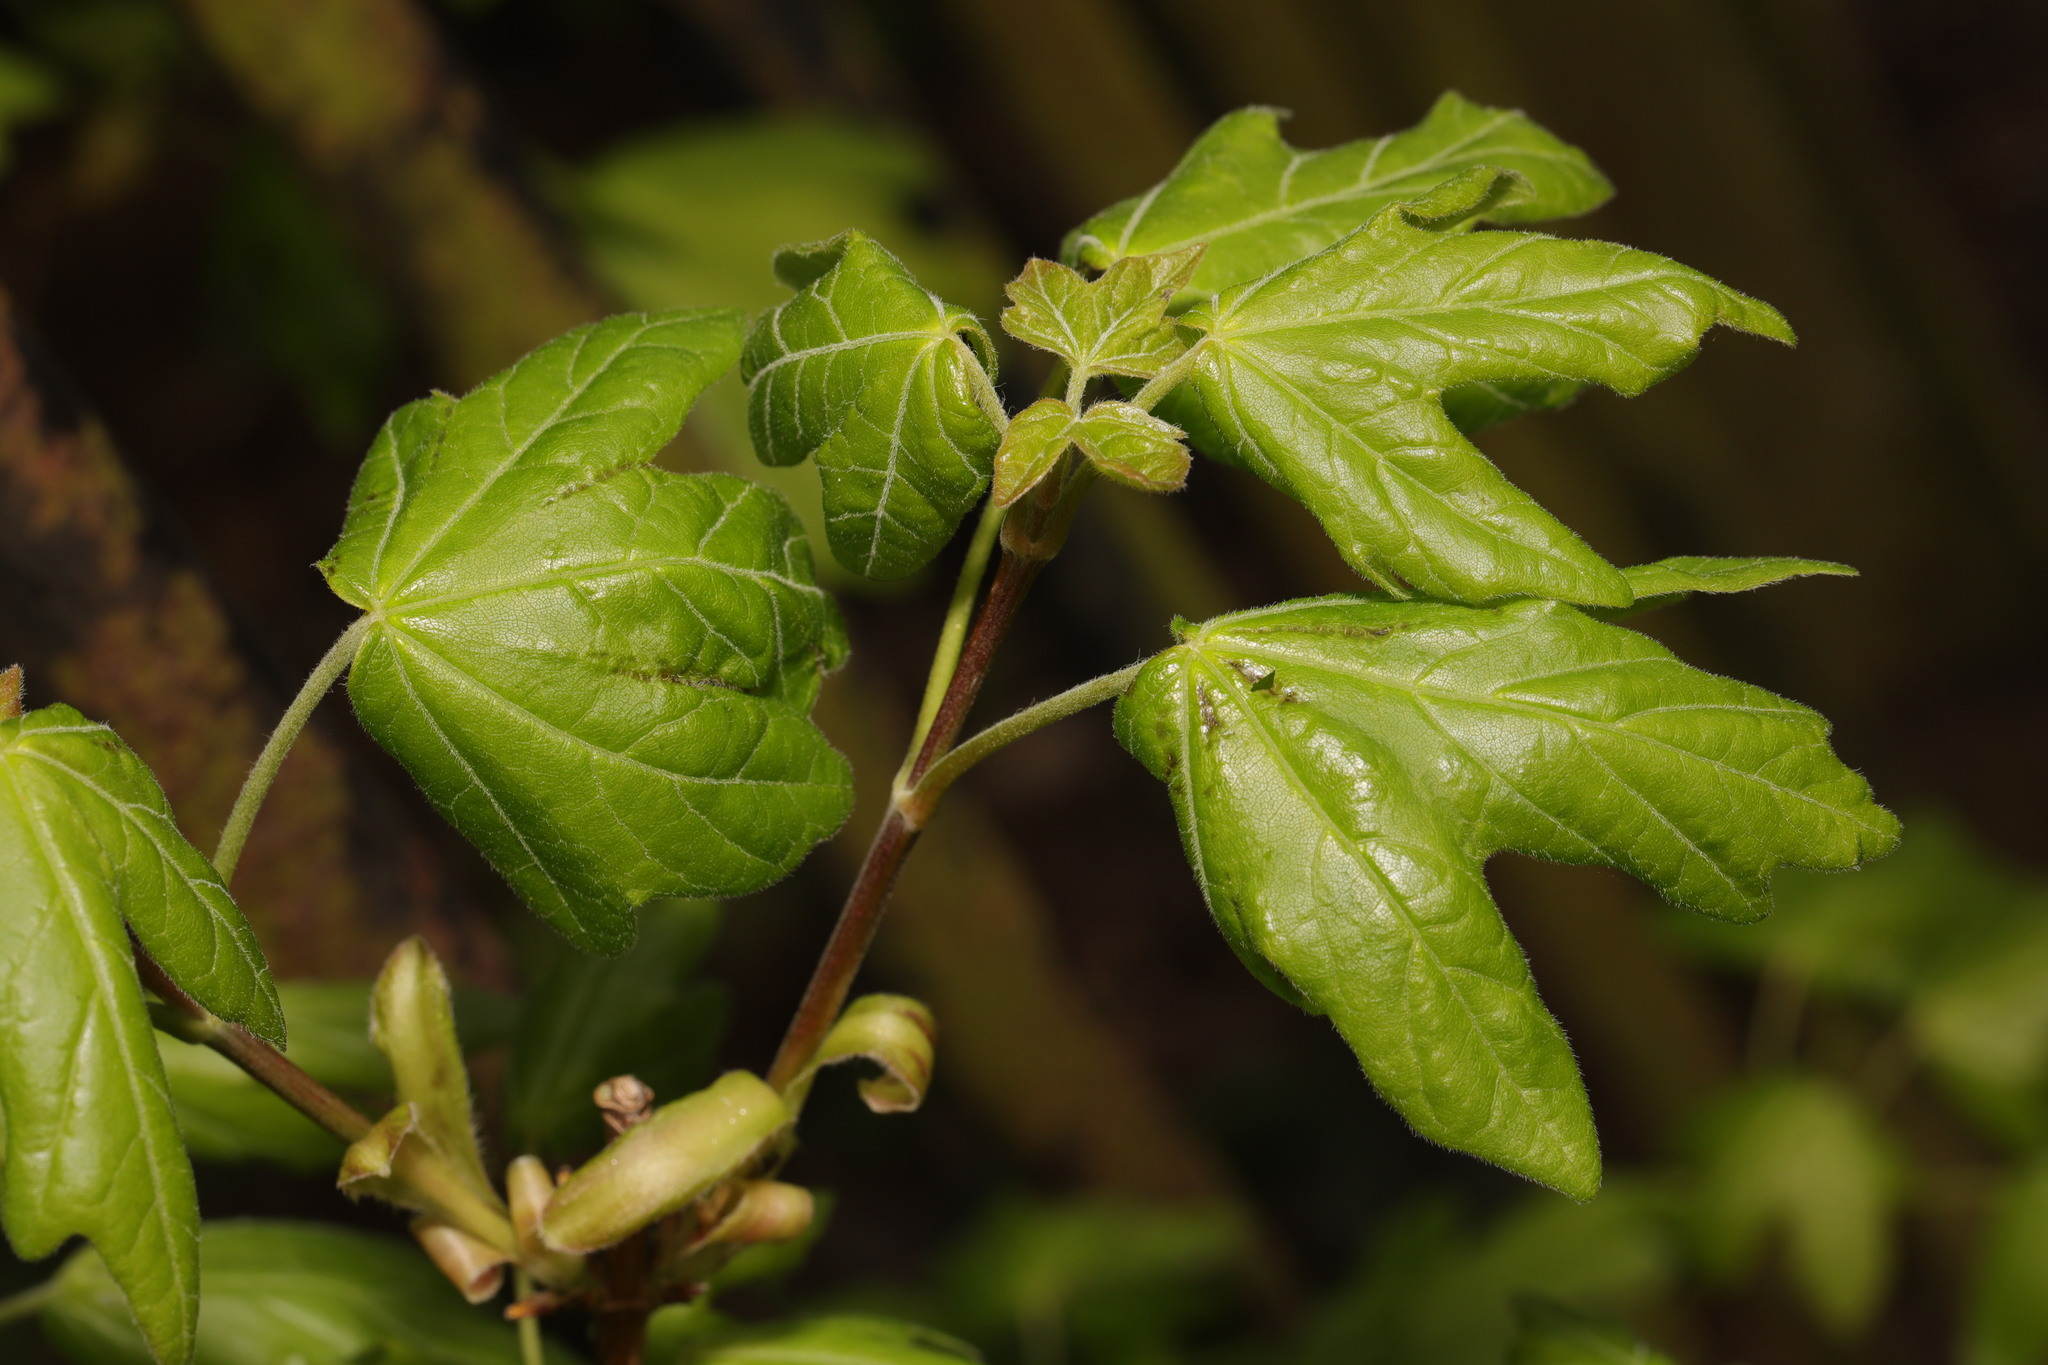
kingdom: Plantae
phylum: Tracheophyta
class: Magnoliopsida
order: Sapindales
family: Sapindaceae
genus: Acer
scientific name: Acer campestre
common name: Field maple
